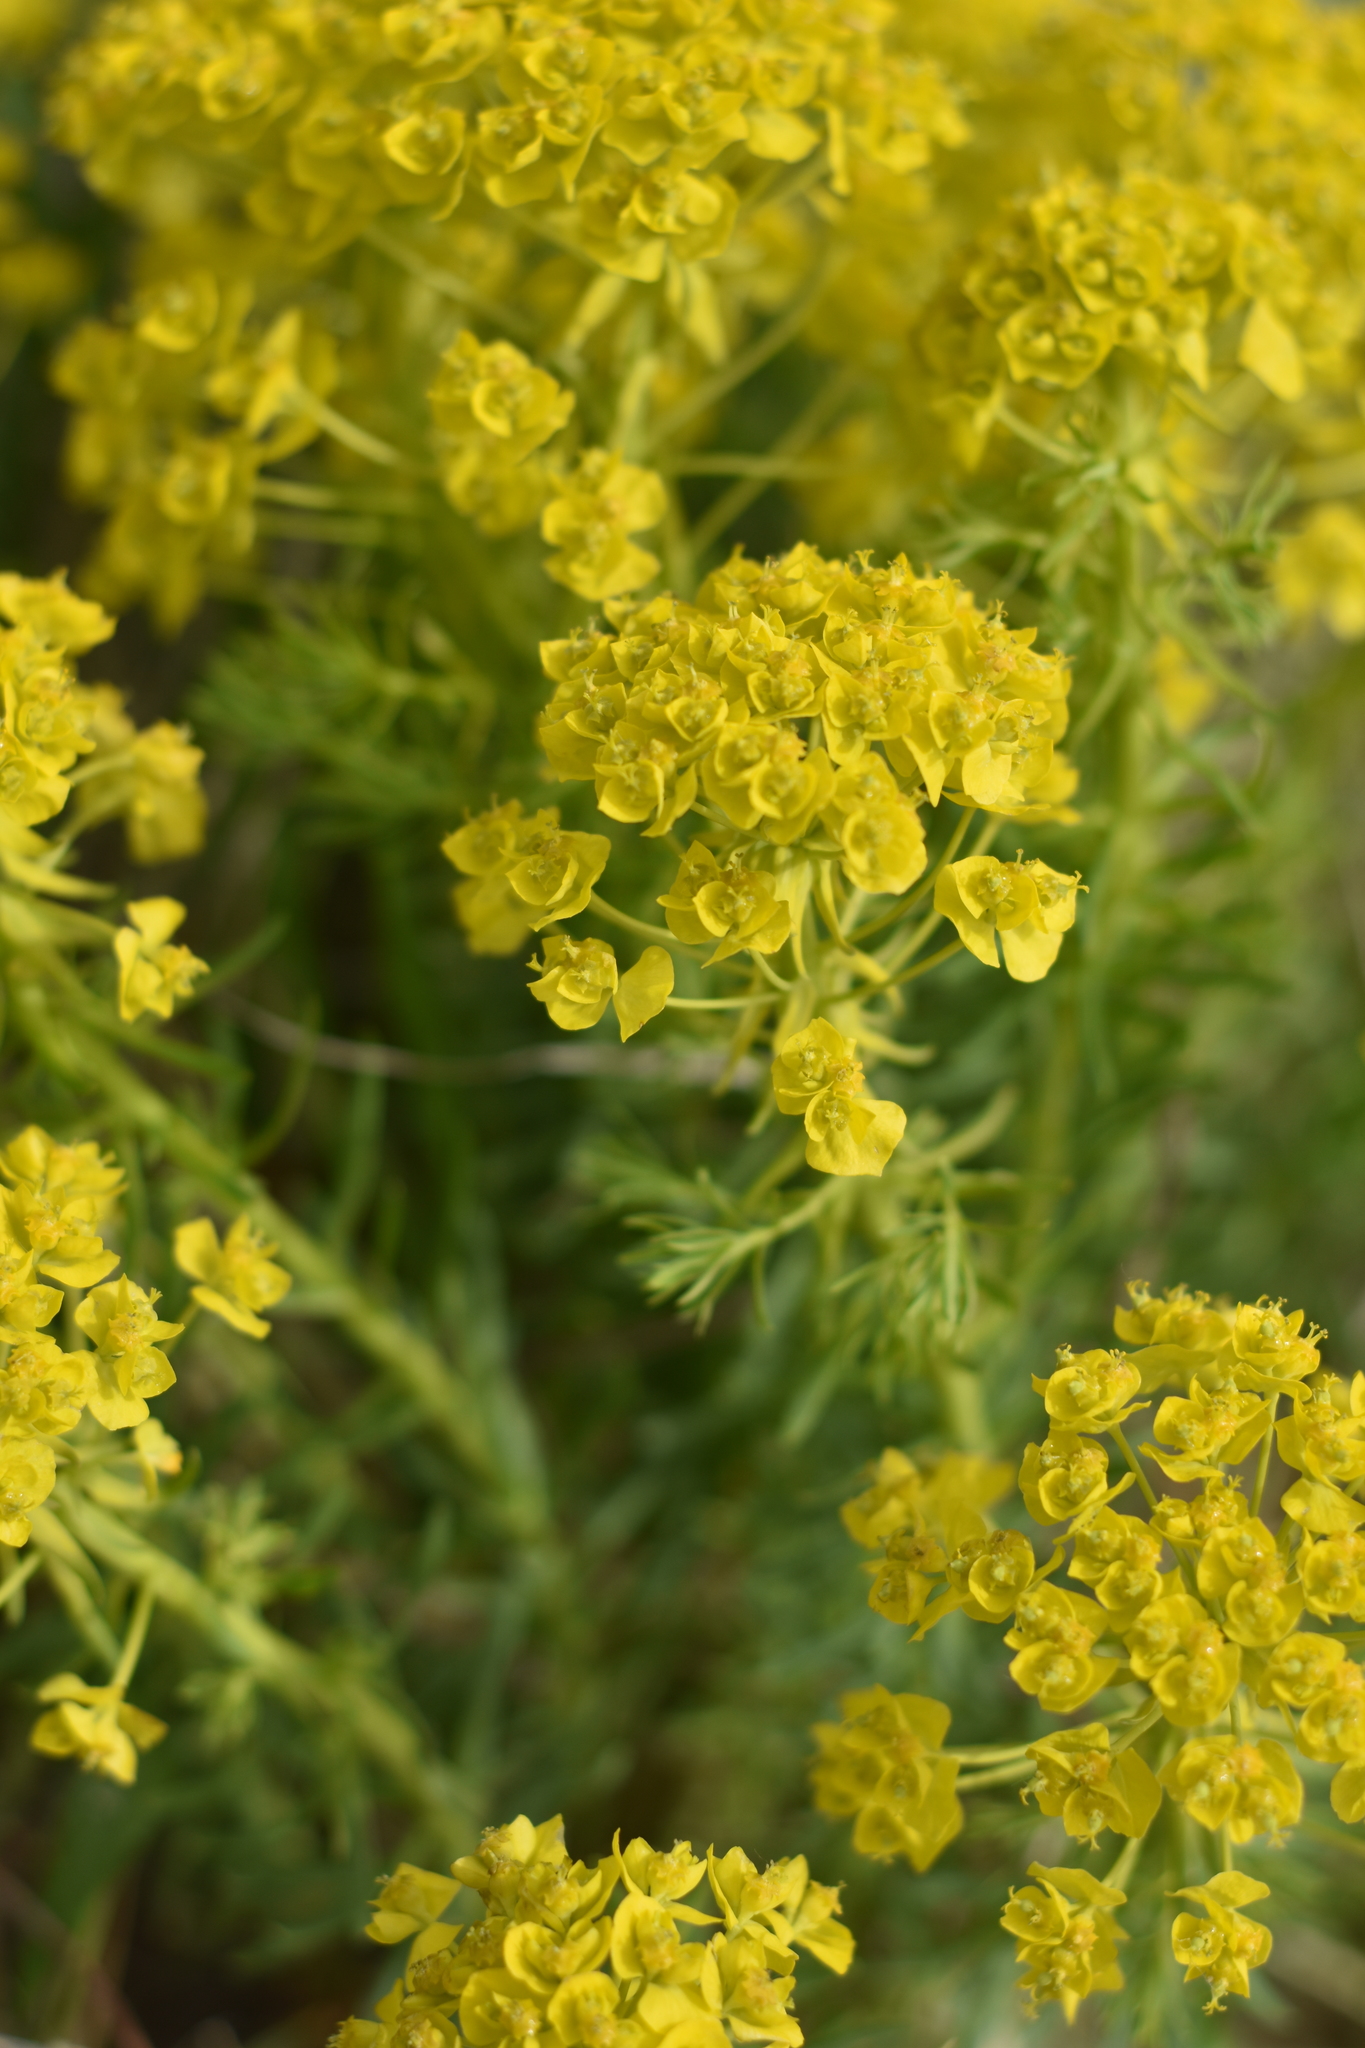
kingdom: Plantae
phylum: Tracheophyta
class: Magnoliopsida
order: Malpighiales
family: Euphorbiaceae
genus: Euphorbia
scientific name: Euphorbia cyparissias
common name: Cypress spurge
